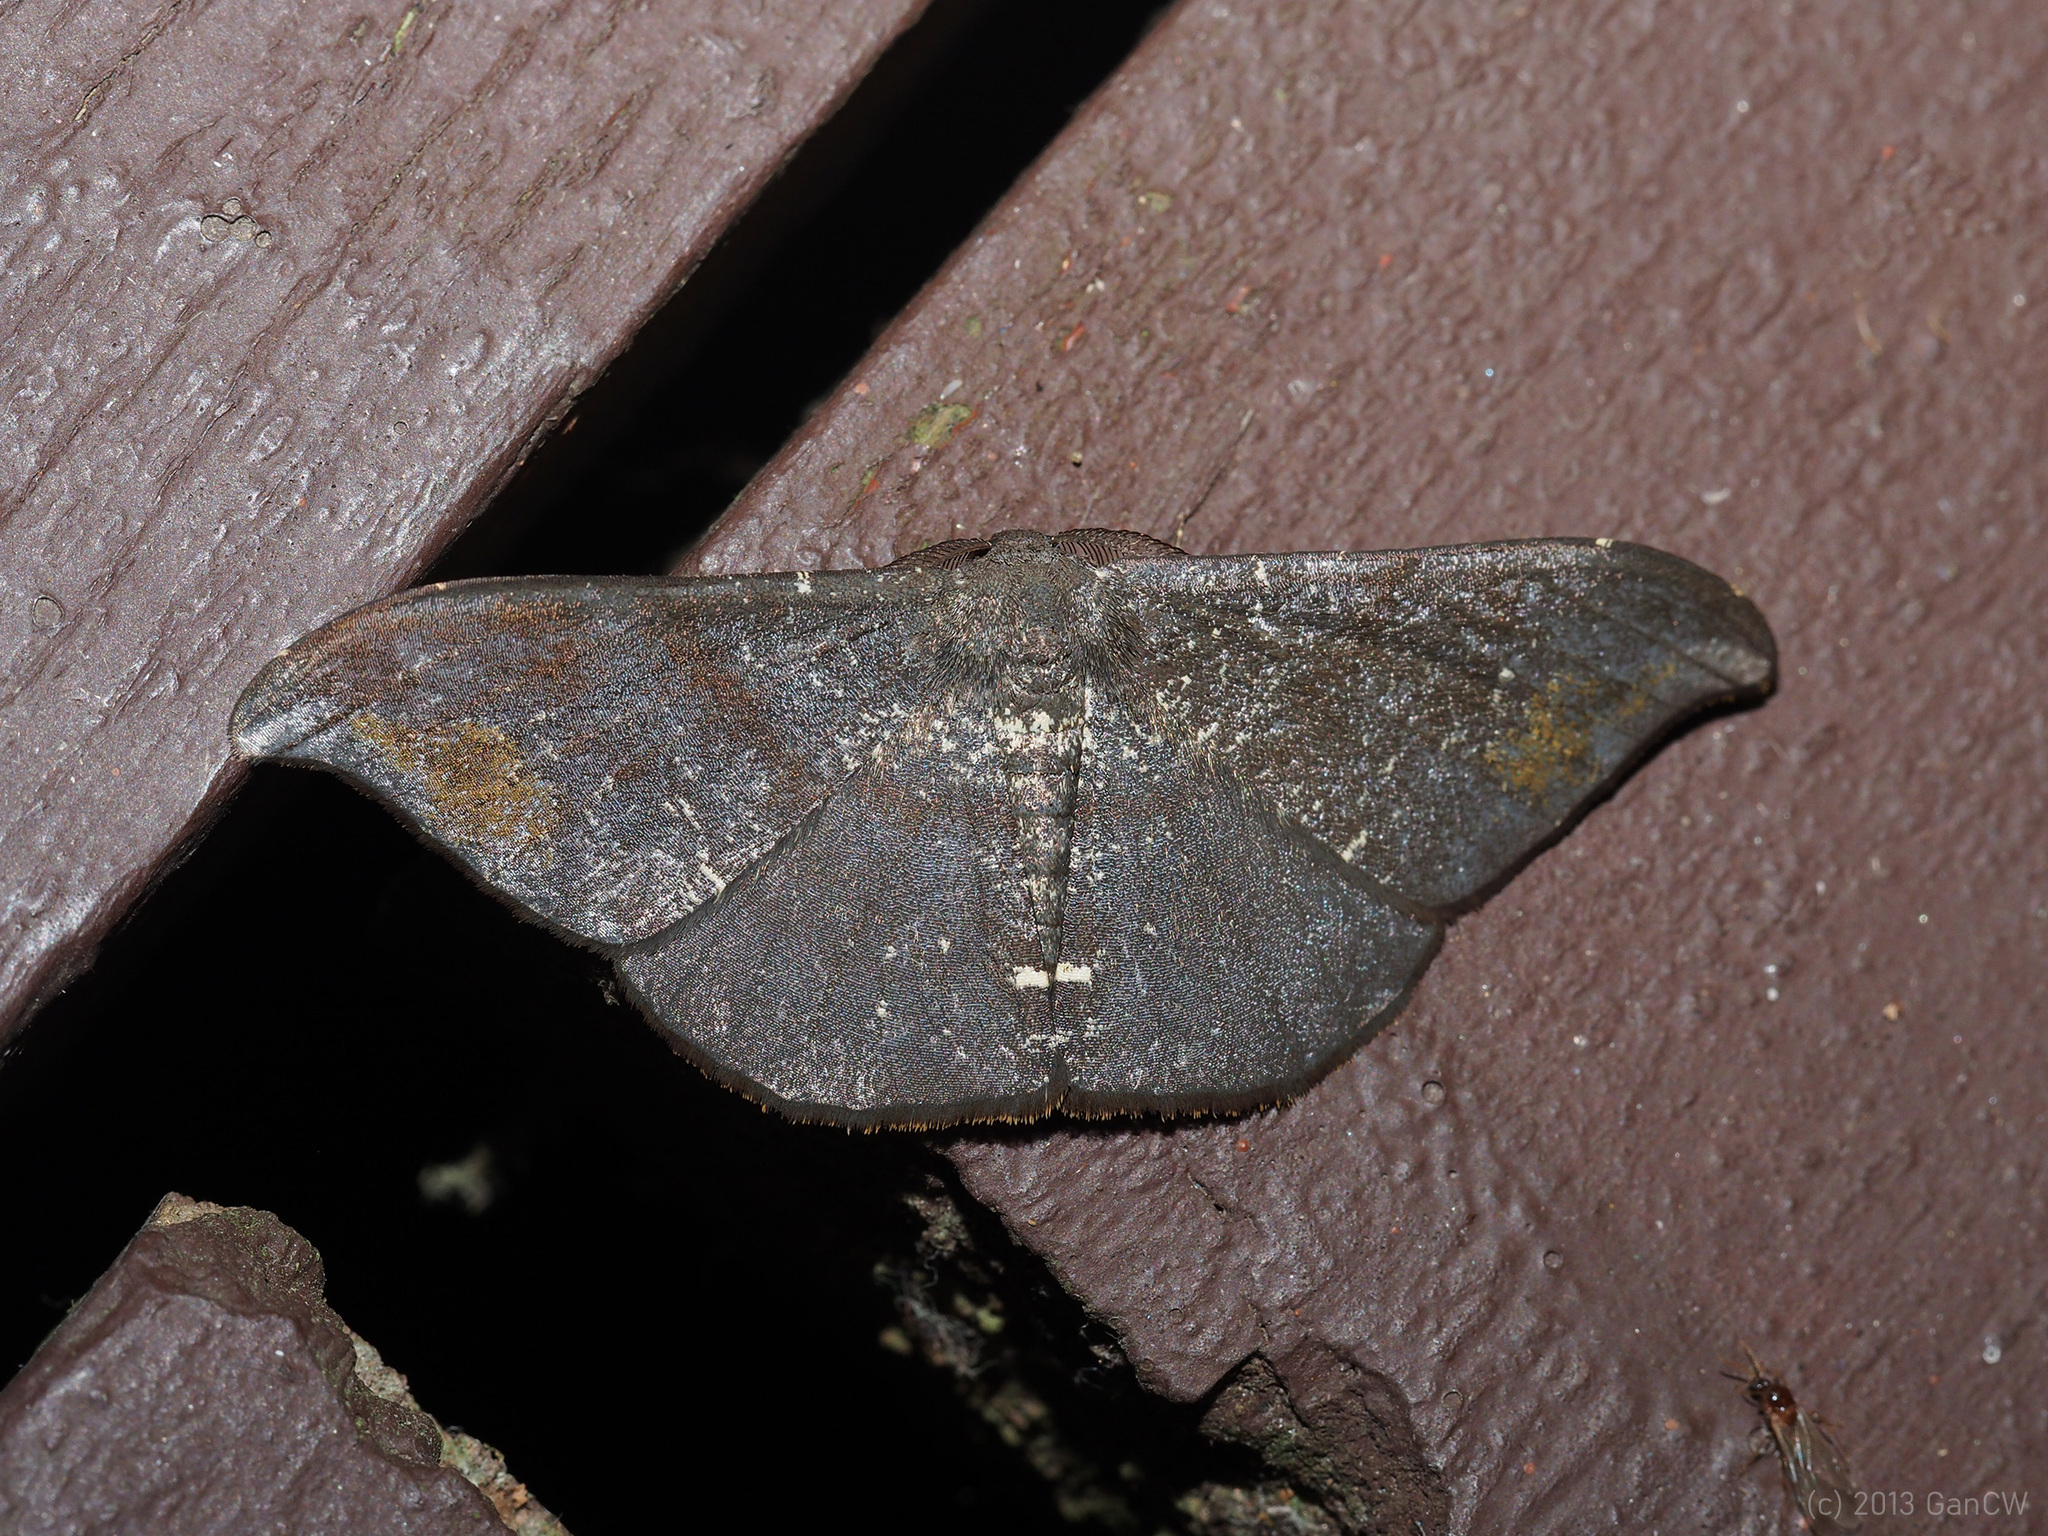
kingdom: Animalia
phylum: Arthropoda
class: Insecta
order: Lepidoptera
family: Geometridae
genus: Hyposidra
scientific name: Hyposidra aquilaria
